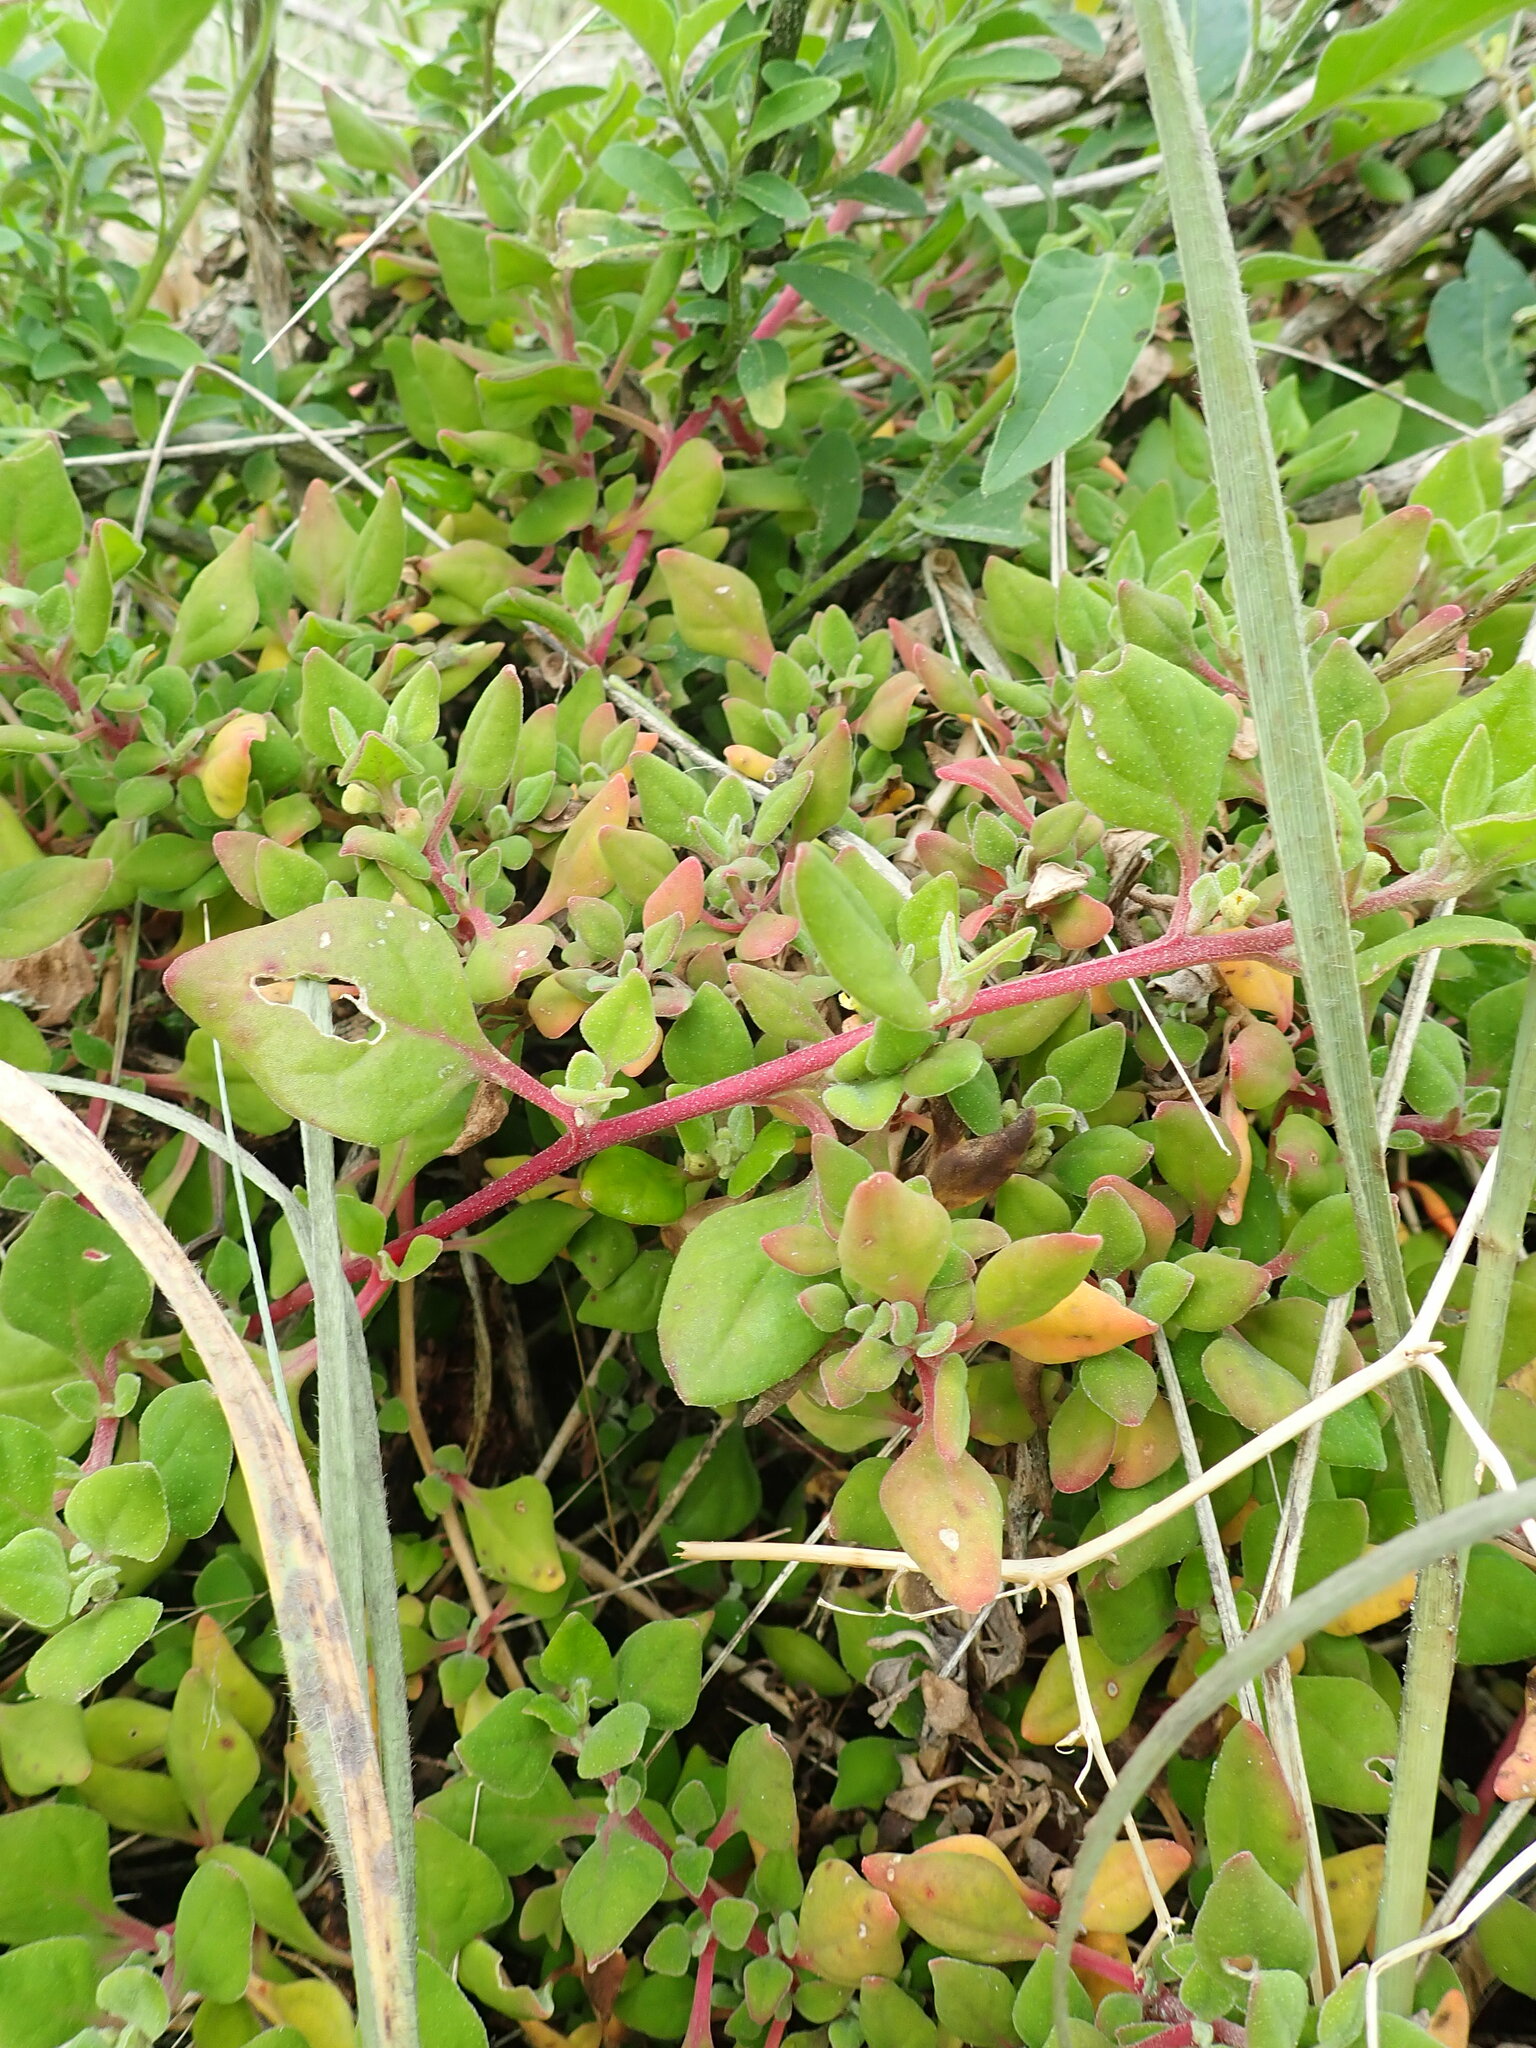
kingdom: Plantae
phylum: Tracheophyta
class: Magnoliopsida
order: Caryophyllales
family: Aizoaceae
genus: Tetragonia
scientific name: Tetragonia implexicoma
